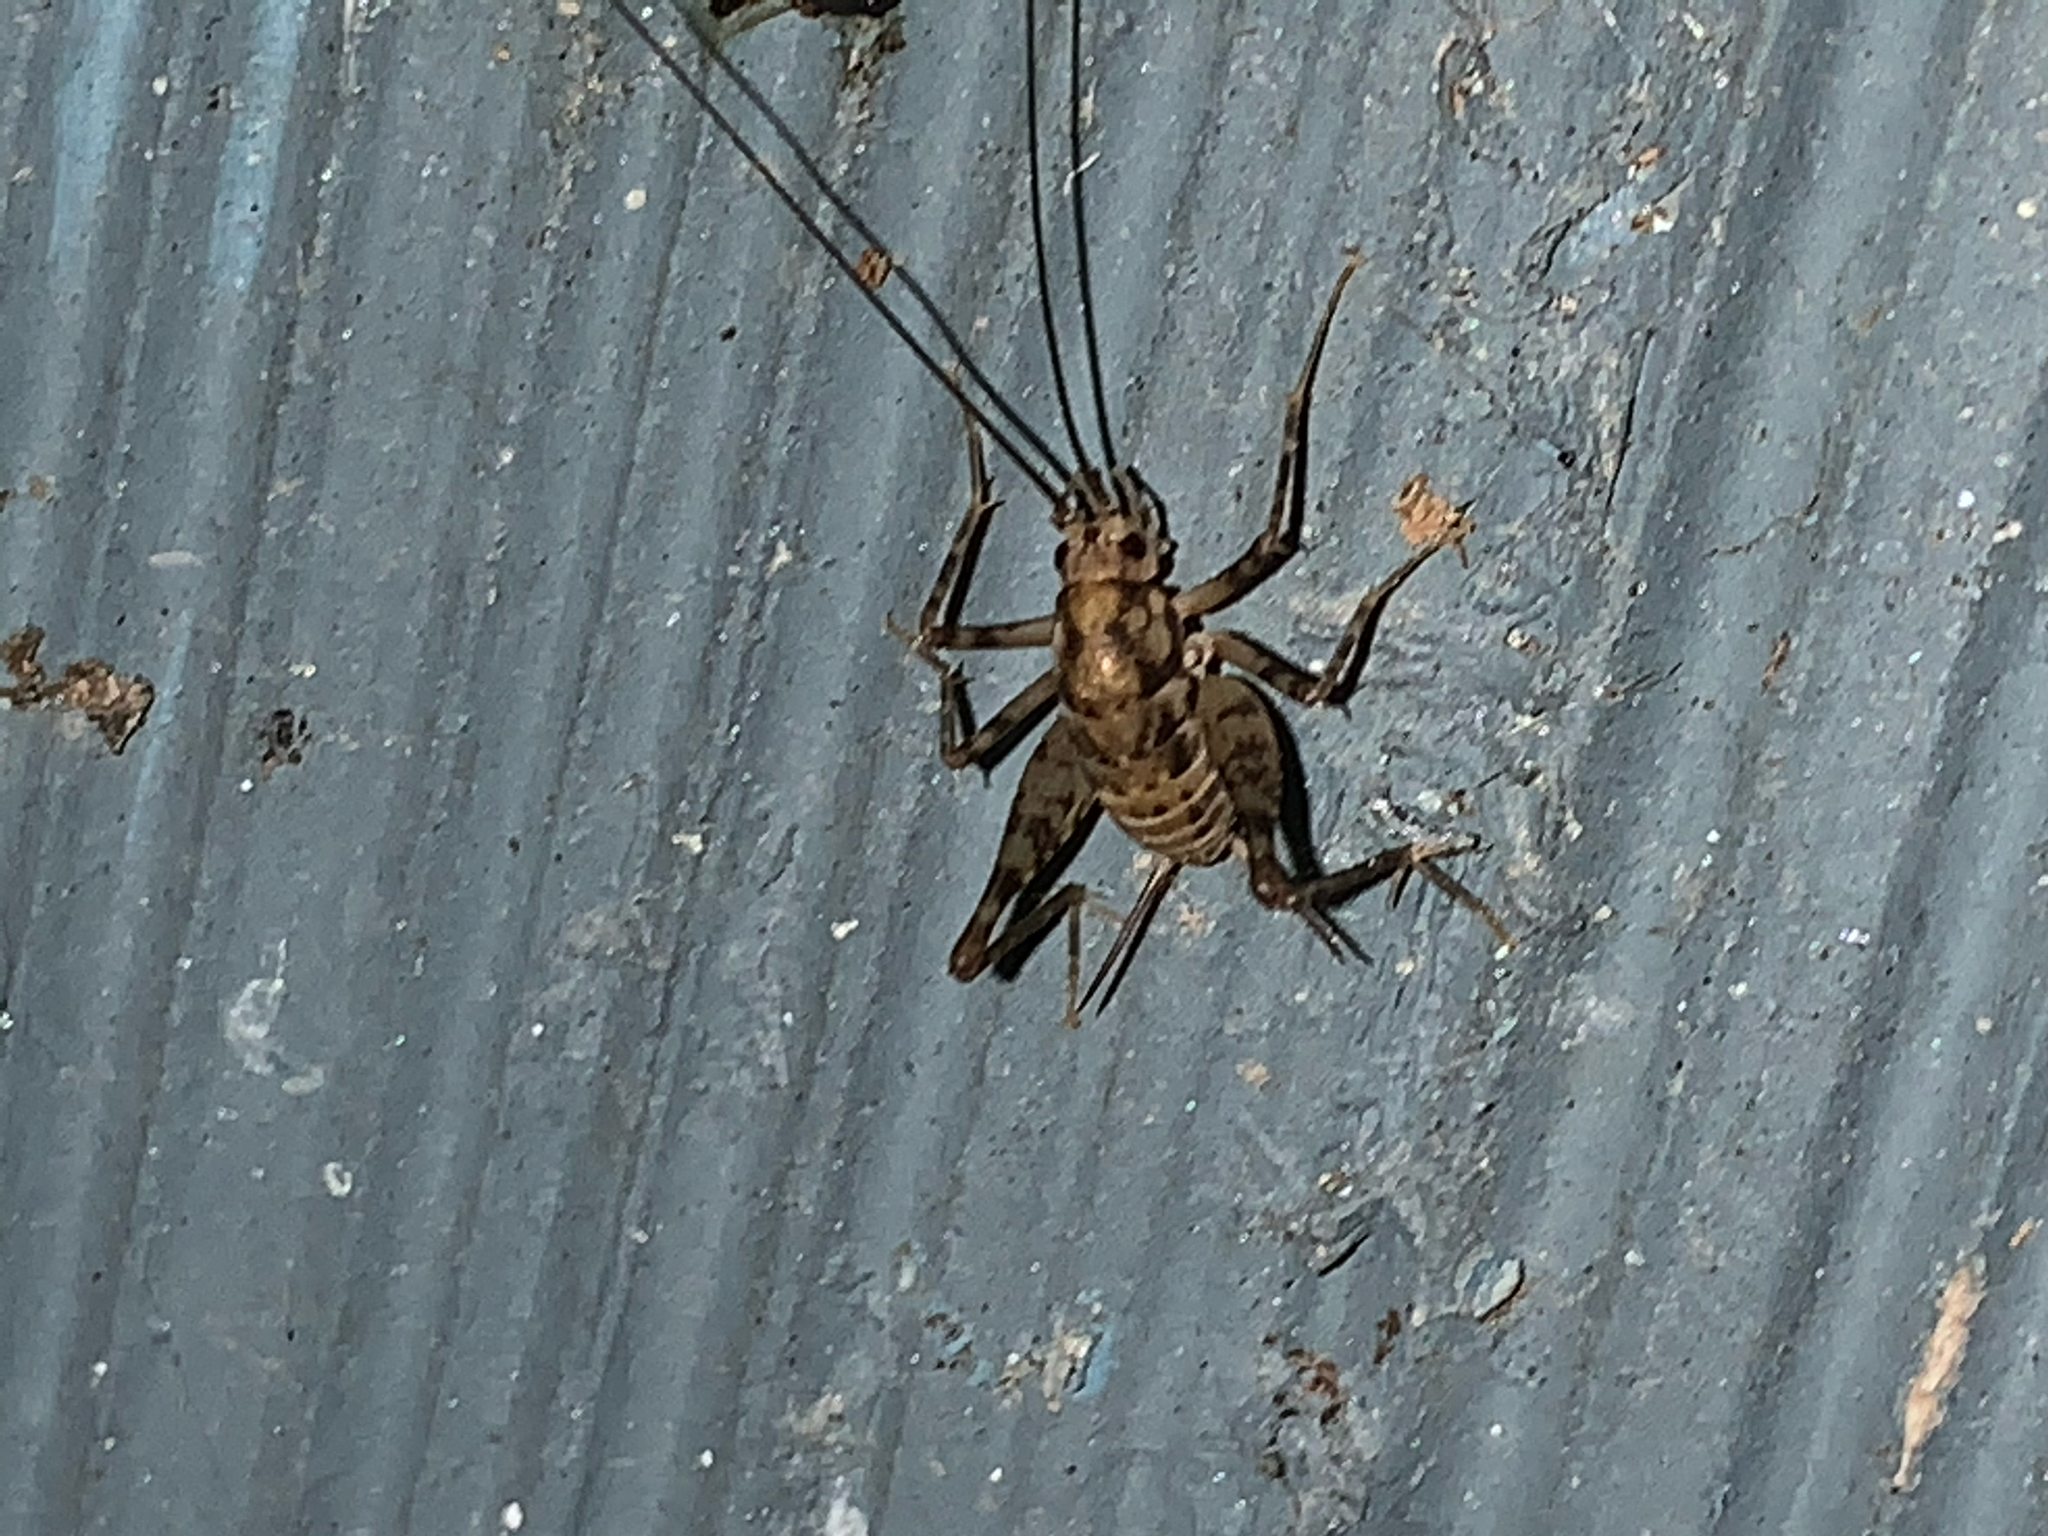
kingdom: Animalia
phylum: Arthropoda
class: Insecta
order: Orthoptera
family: Rhaphidophoridae
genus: Tachycines
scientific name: Tachycines asynamorus
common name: Greenhouse camel cricket
